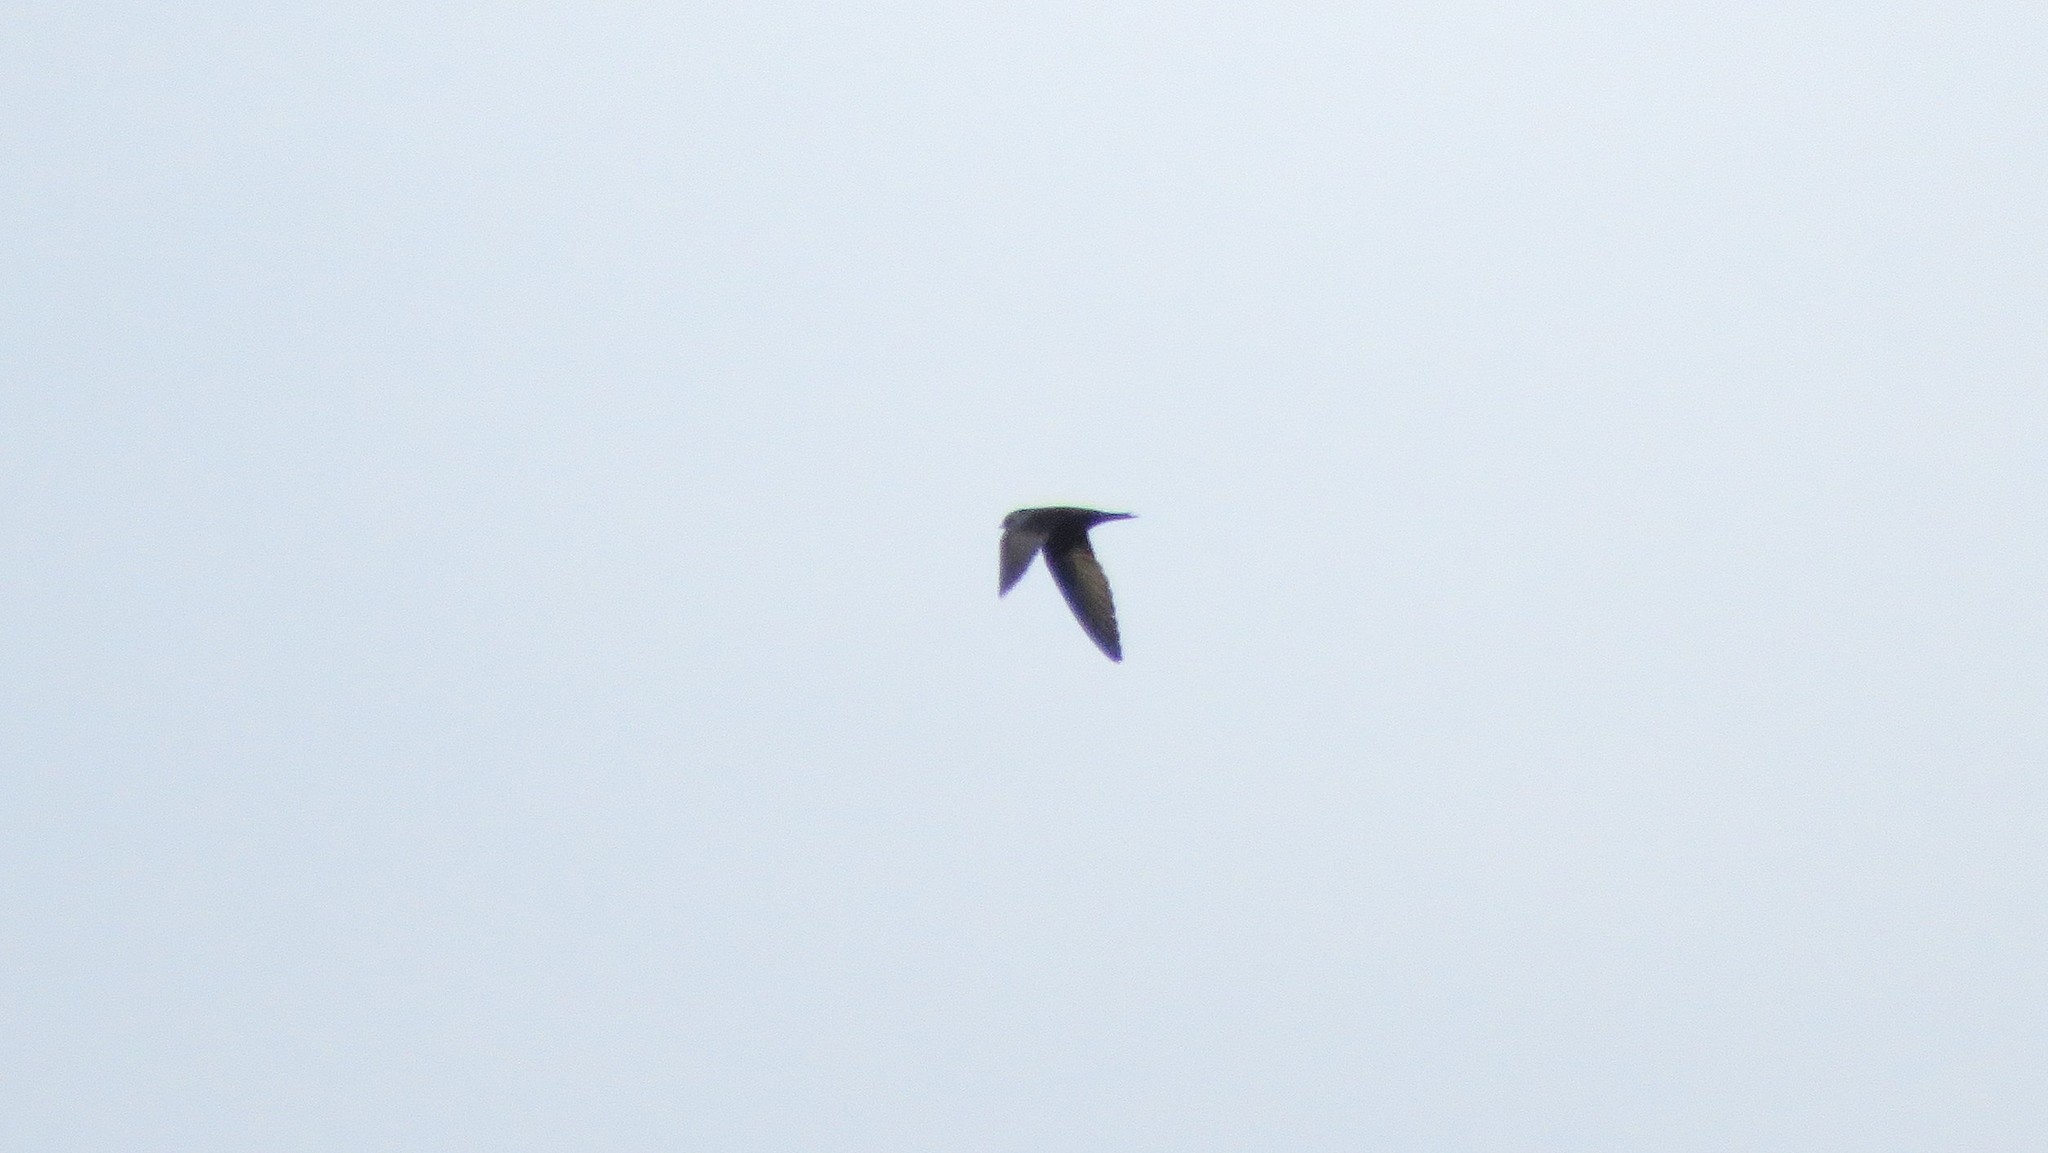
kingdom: Animalia
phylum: Chordata
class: Aves
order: Passeriformes
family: Hirundinidae
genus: Progne
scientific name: Progne subis
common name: Purple martin
